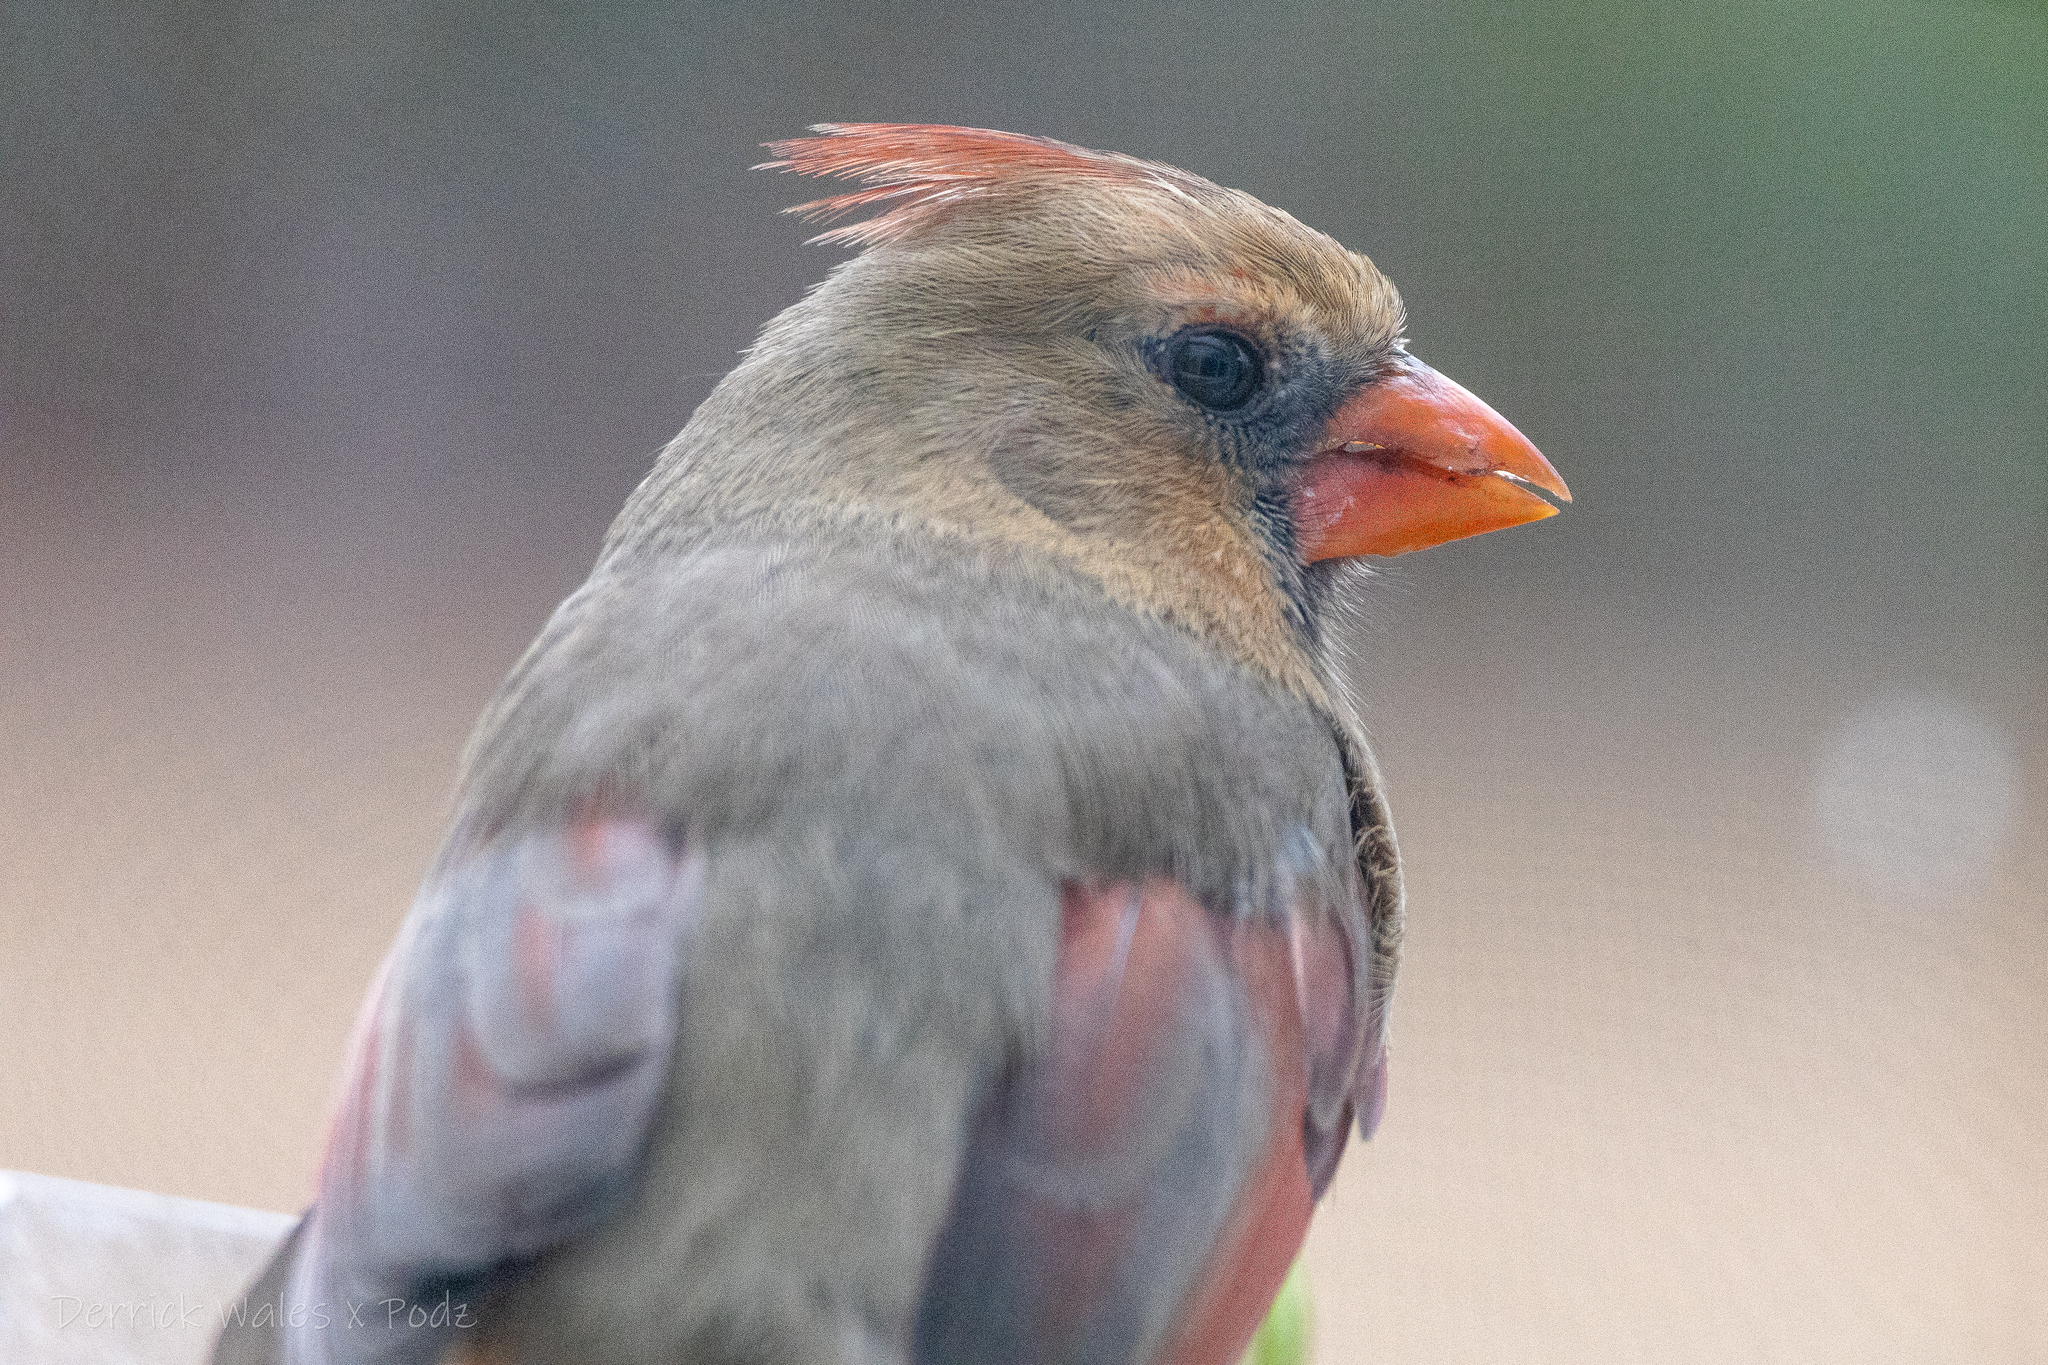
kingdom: Animalia
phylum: Chordata
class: Aves
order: Passeriformes
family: Cardinalidae
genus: Cardinalis
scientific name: Cardinalis cardinalis
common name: Northern cardinal
